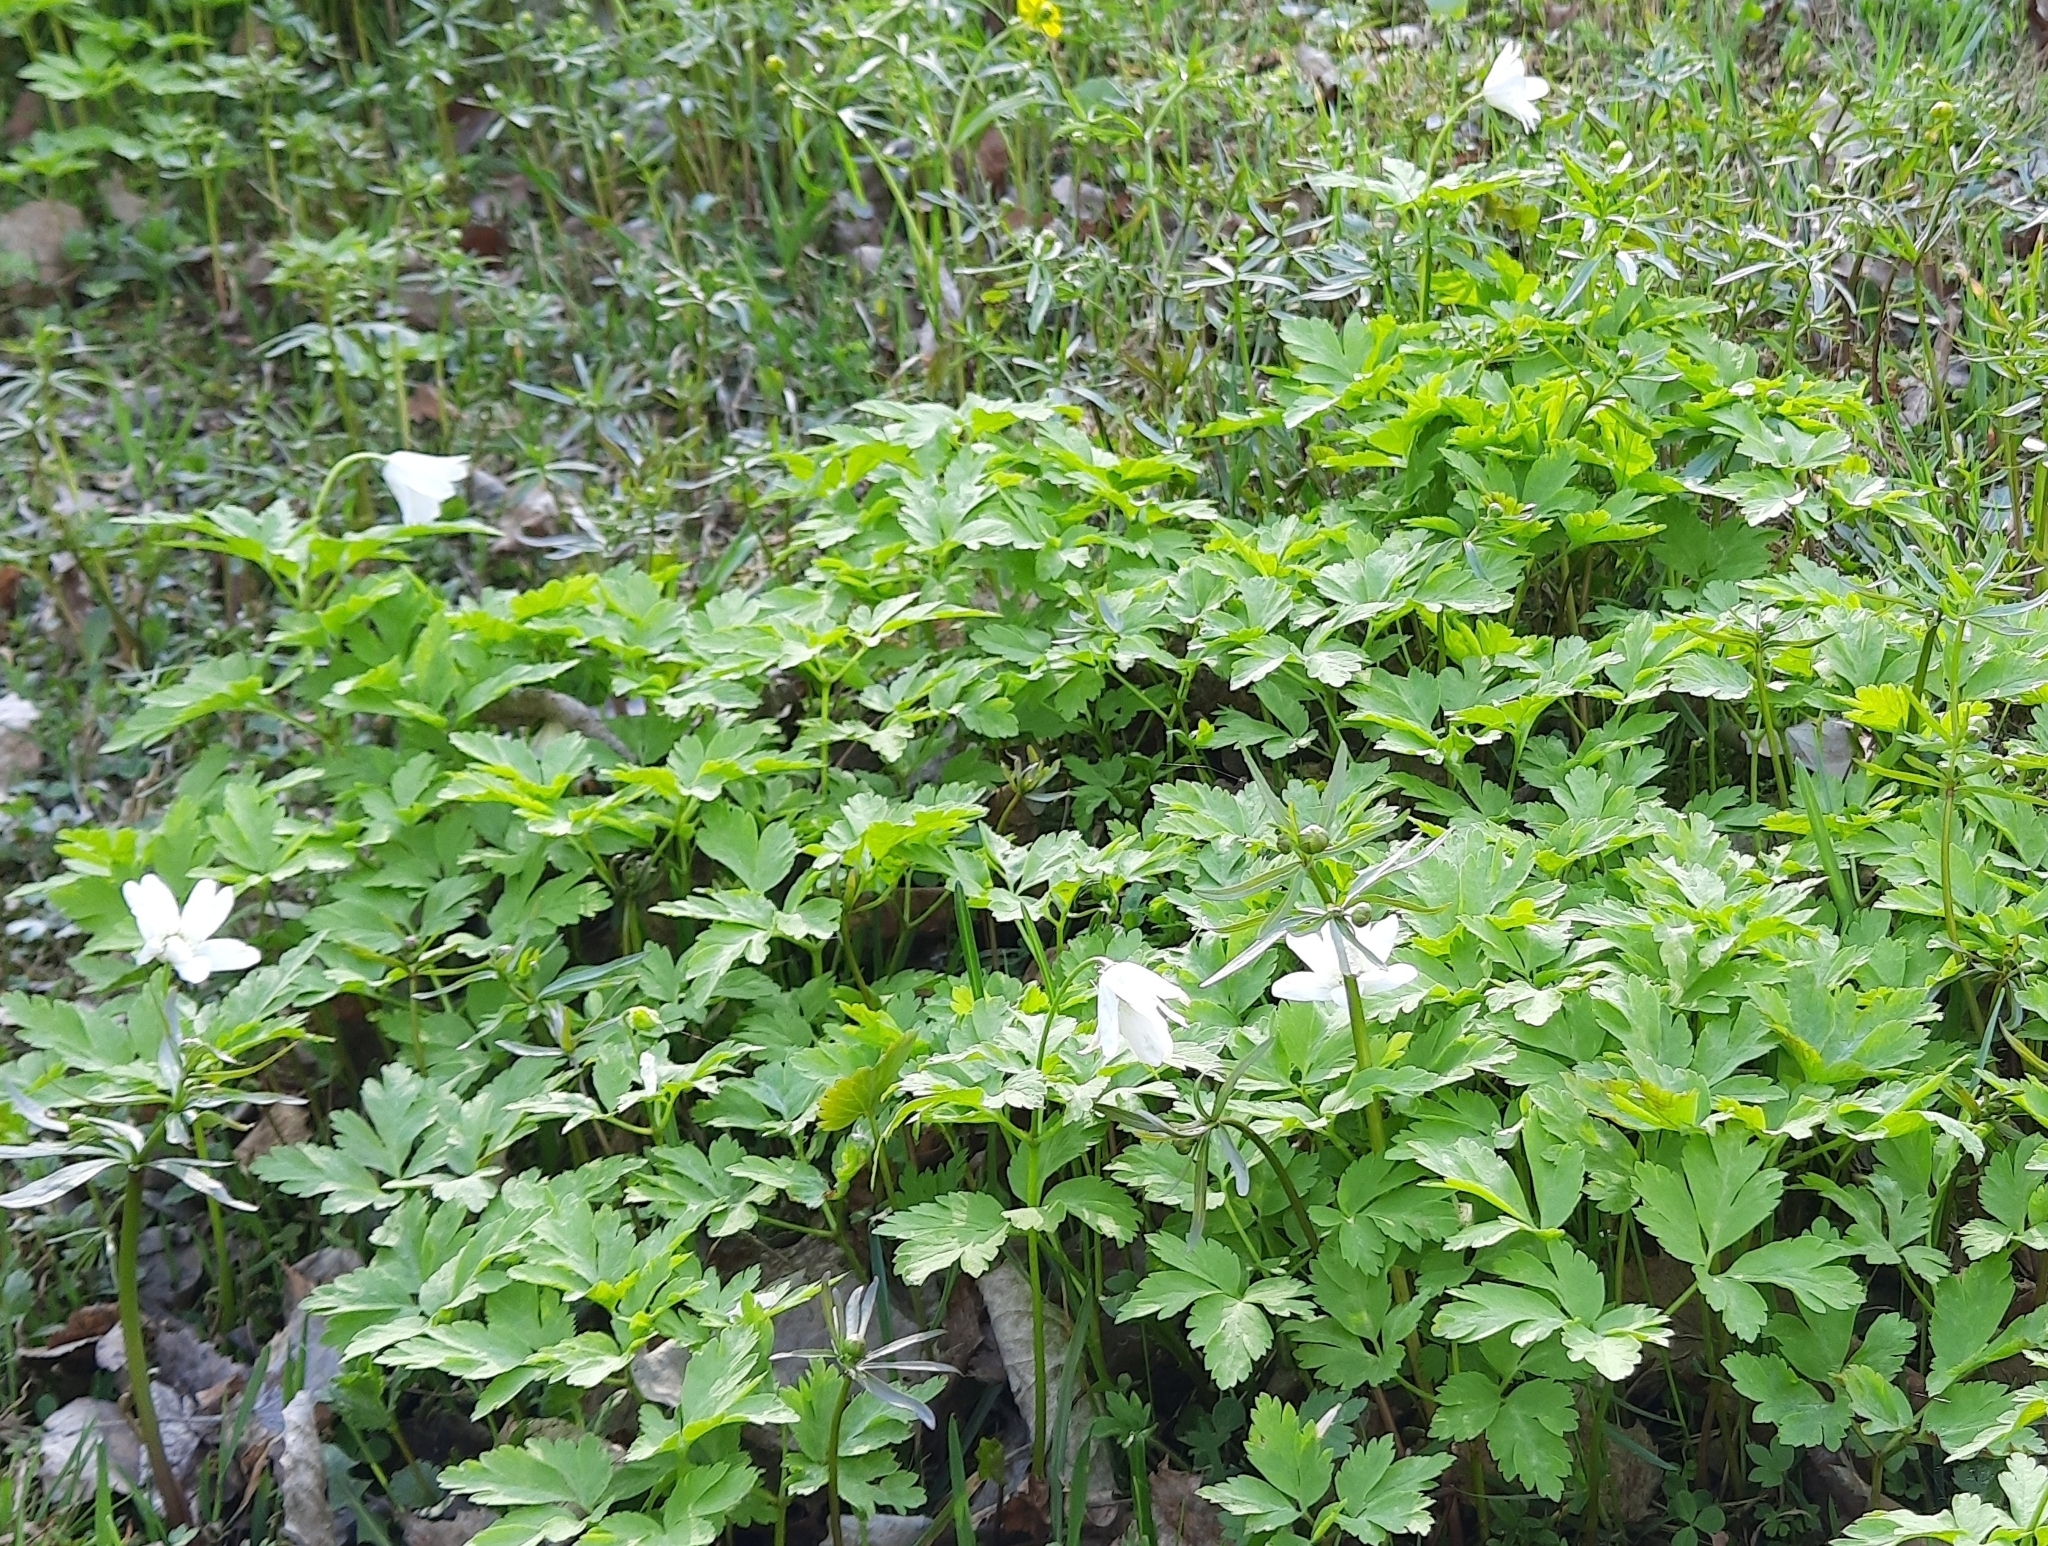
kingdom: Plantae
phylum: Tracheophyta
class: Magnoliopsida
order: Ranunculales
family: Ranunculaceae
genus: Anemone
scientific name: Anemone altaica
